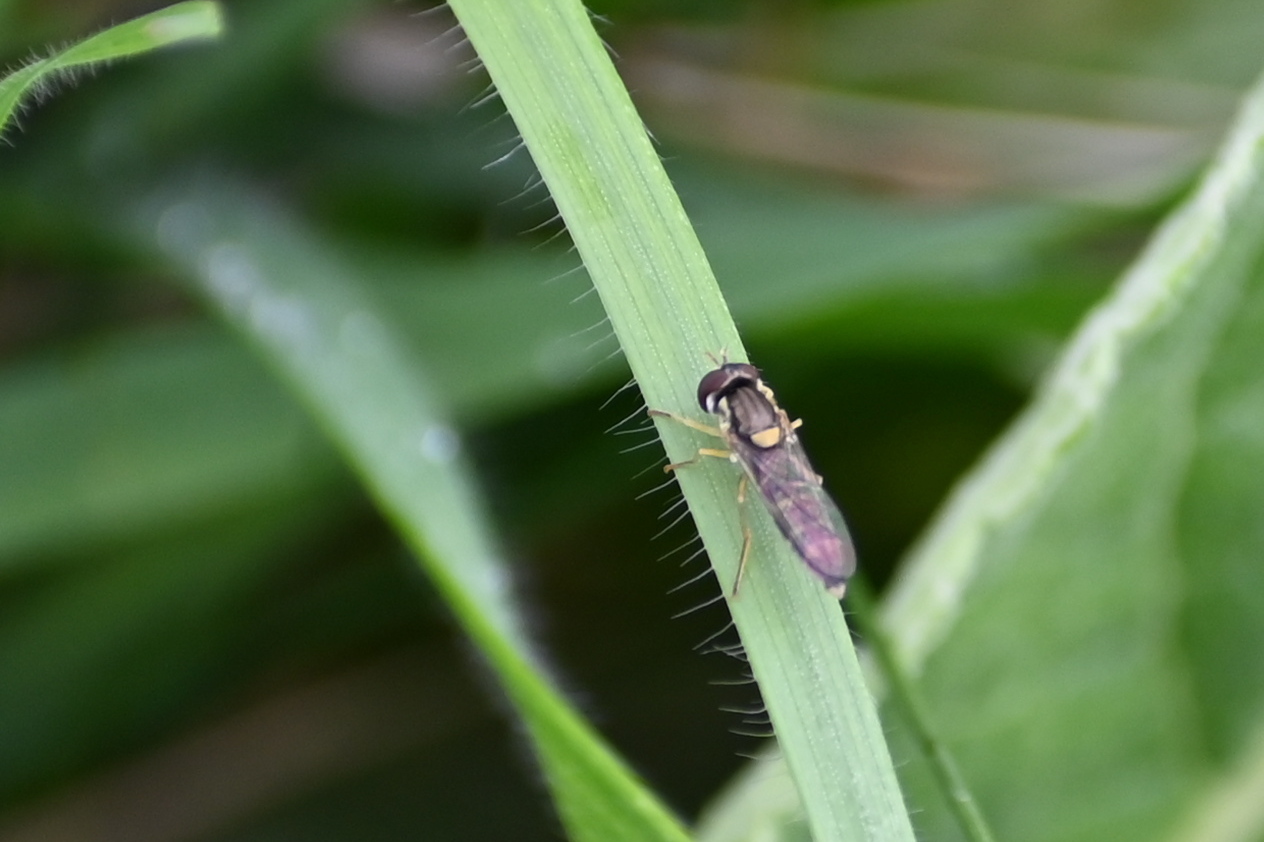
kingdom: Animalia
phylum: Arthropoda
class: Insecta
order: Diptera
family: Syrphidae
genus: Sphaerophoria
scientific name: Sphaerophoria
